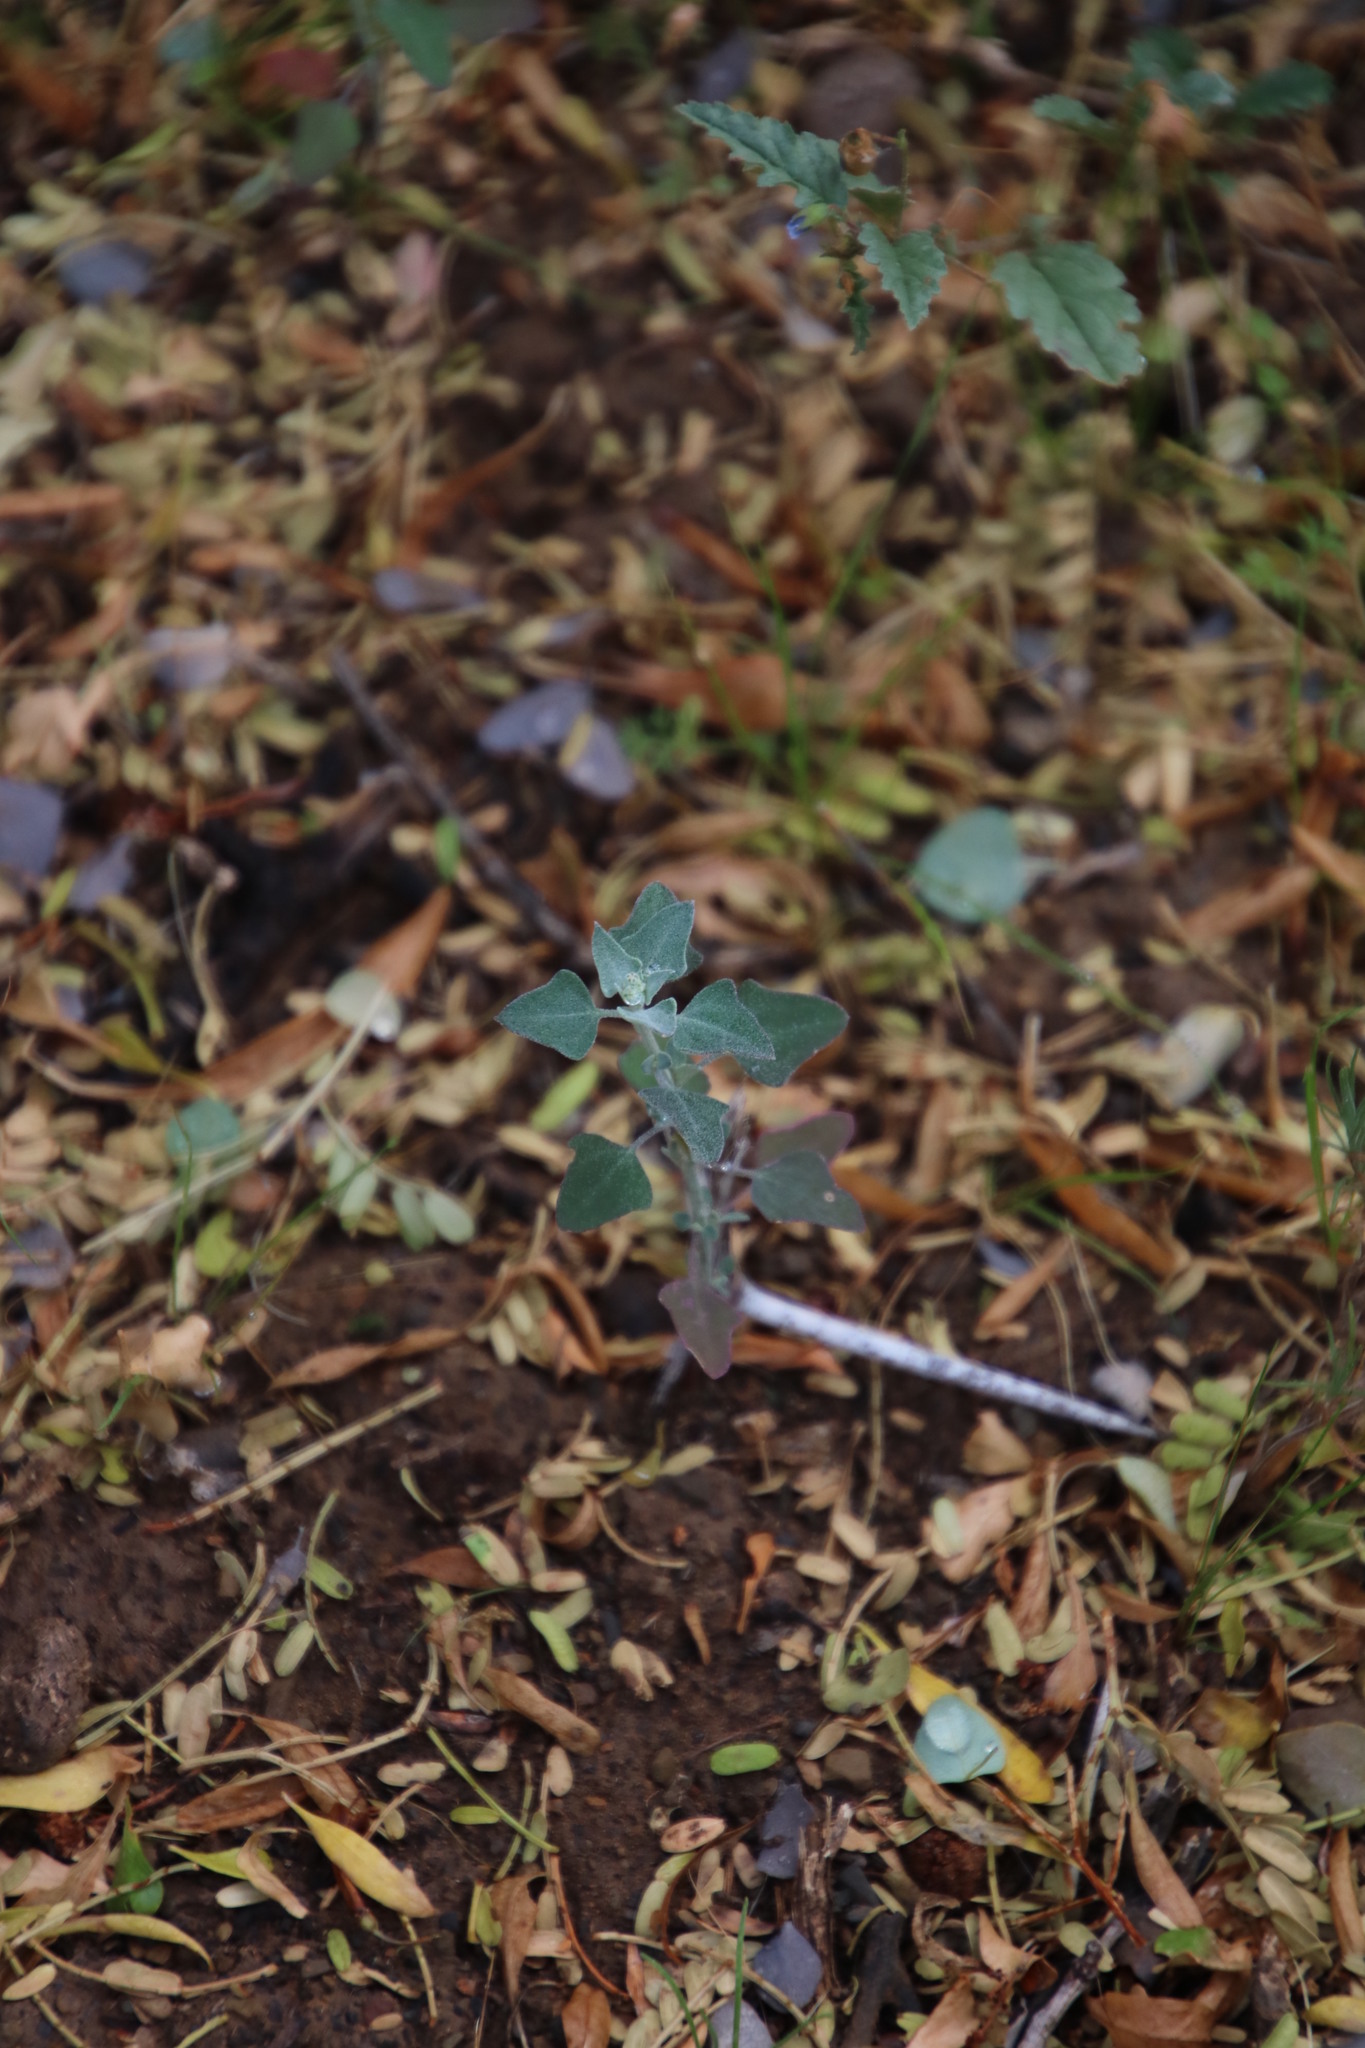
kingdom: Plantae
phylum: Tracheophyta
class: Magnoliopsida
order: Caryophyllales
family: Amaranthaceae
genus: Chenopodium
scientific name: Chenopodium phillipsianum
